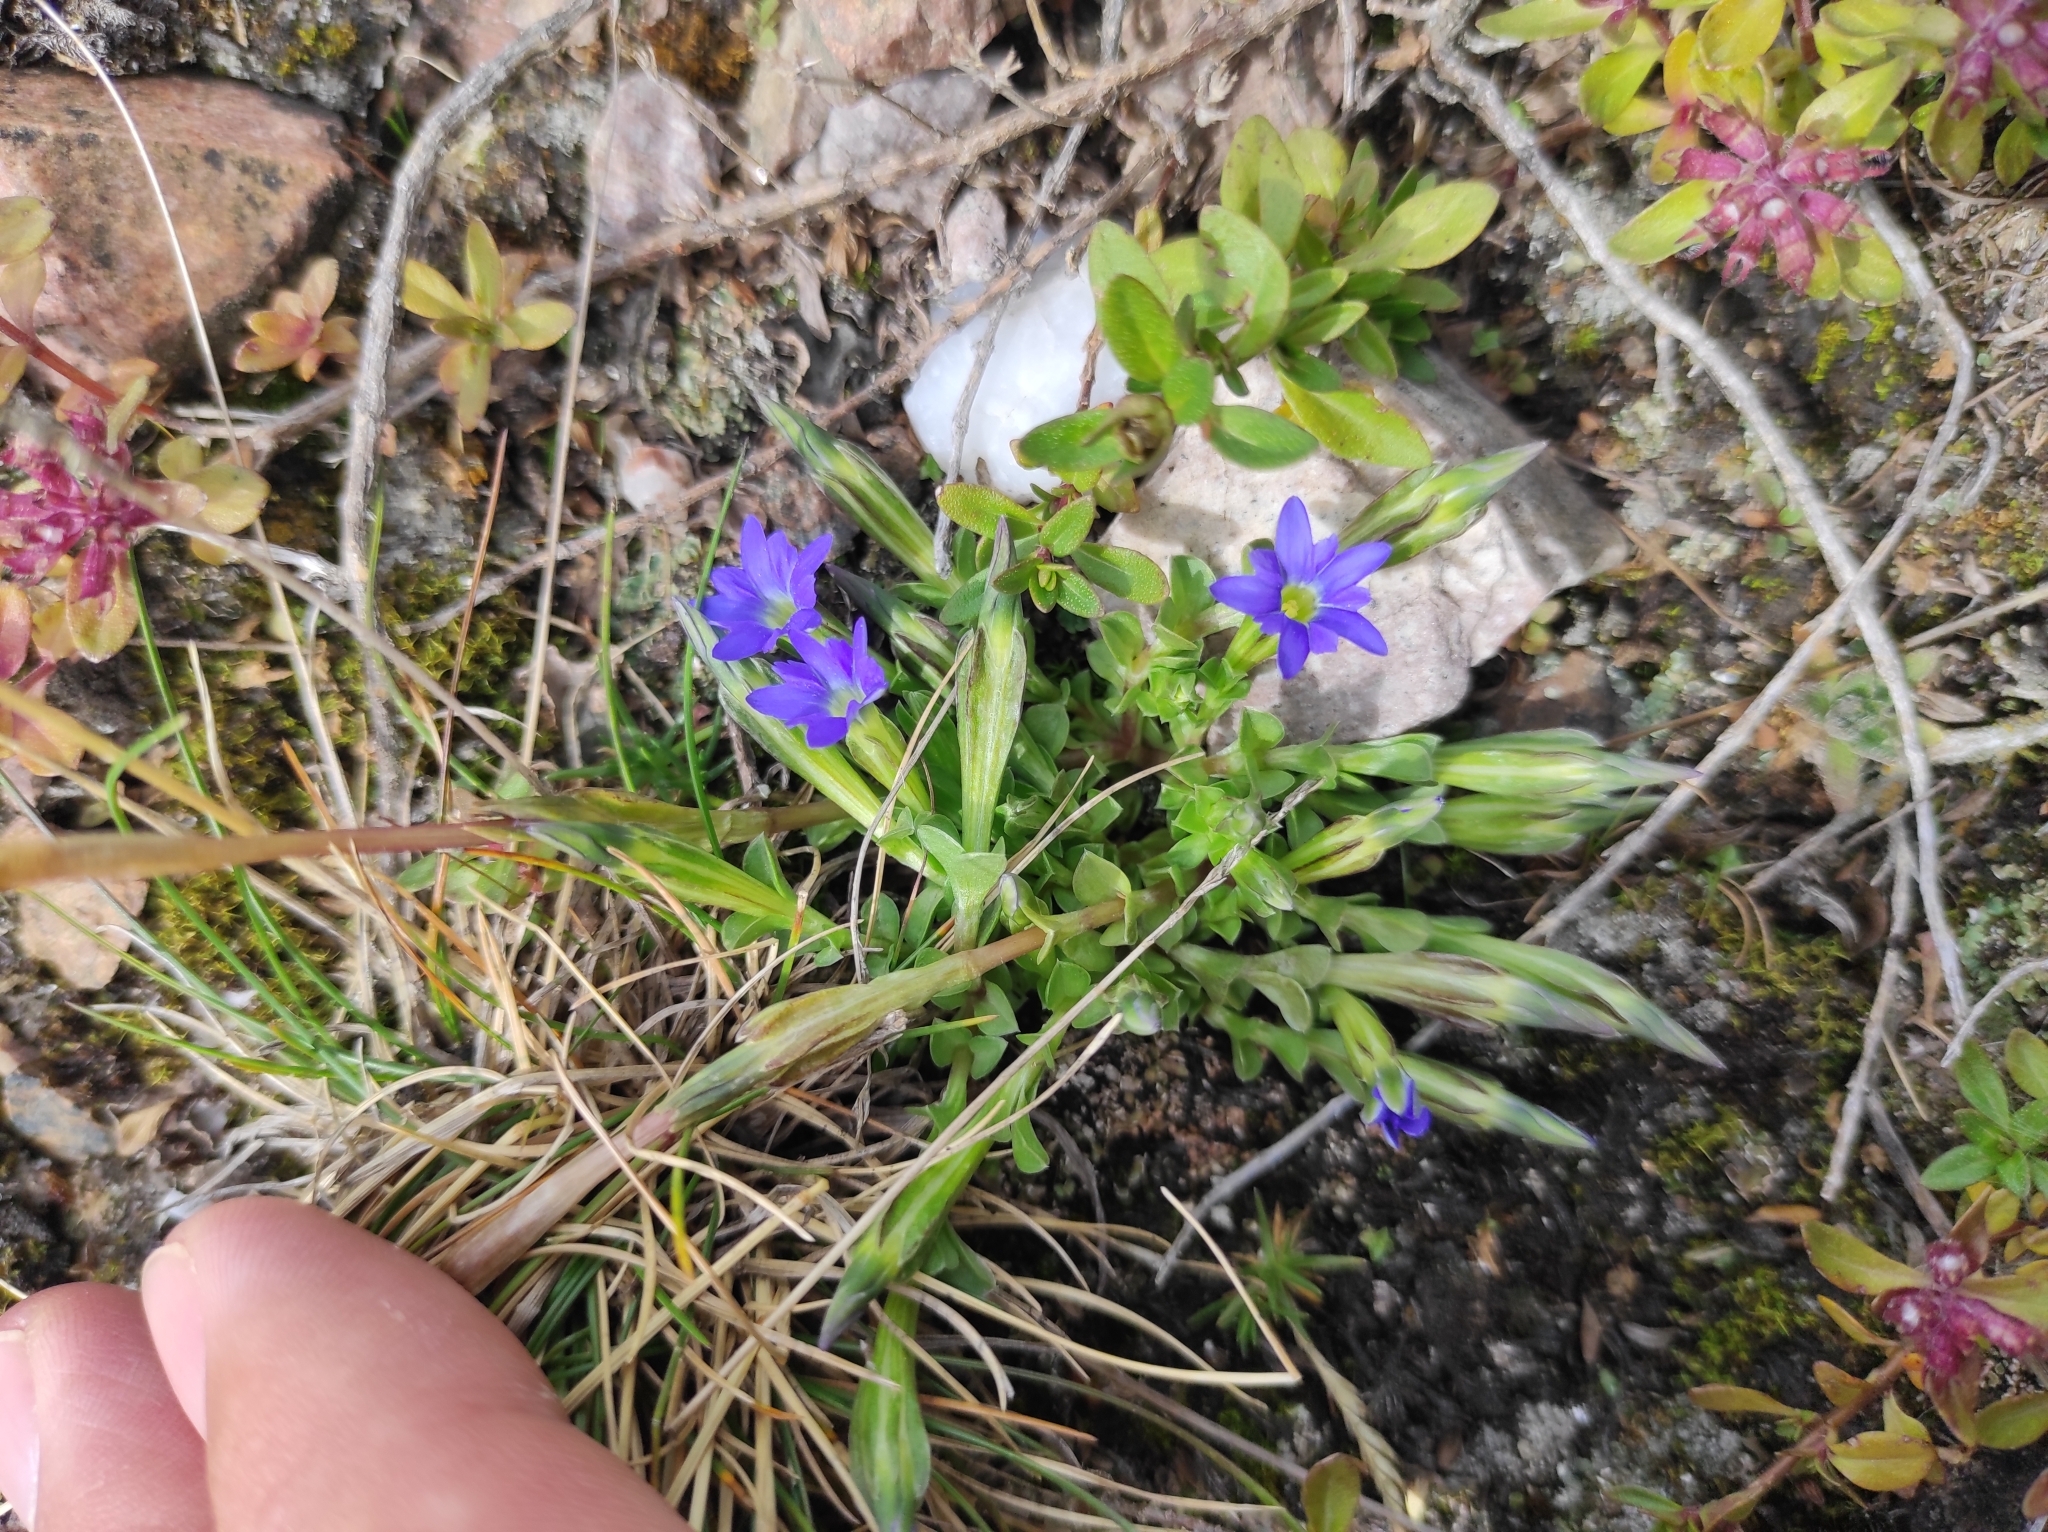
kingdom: Plantae
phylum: Tracheophyta
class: Magnoliopsida
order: Gentianales
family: Gentianaceae
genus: Gentiana
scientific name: Gentiana prostrata
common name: Moss gentian
